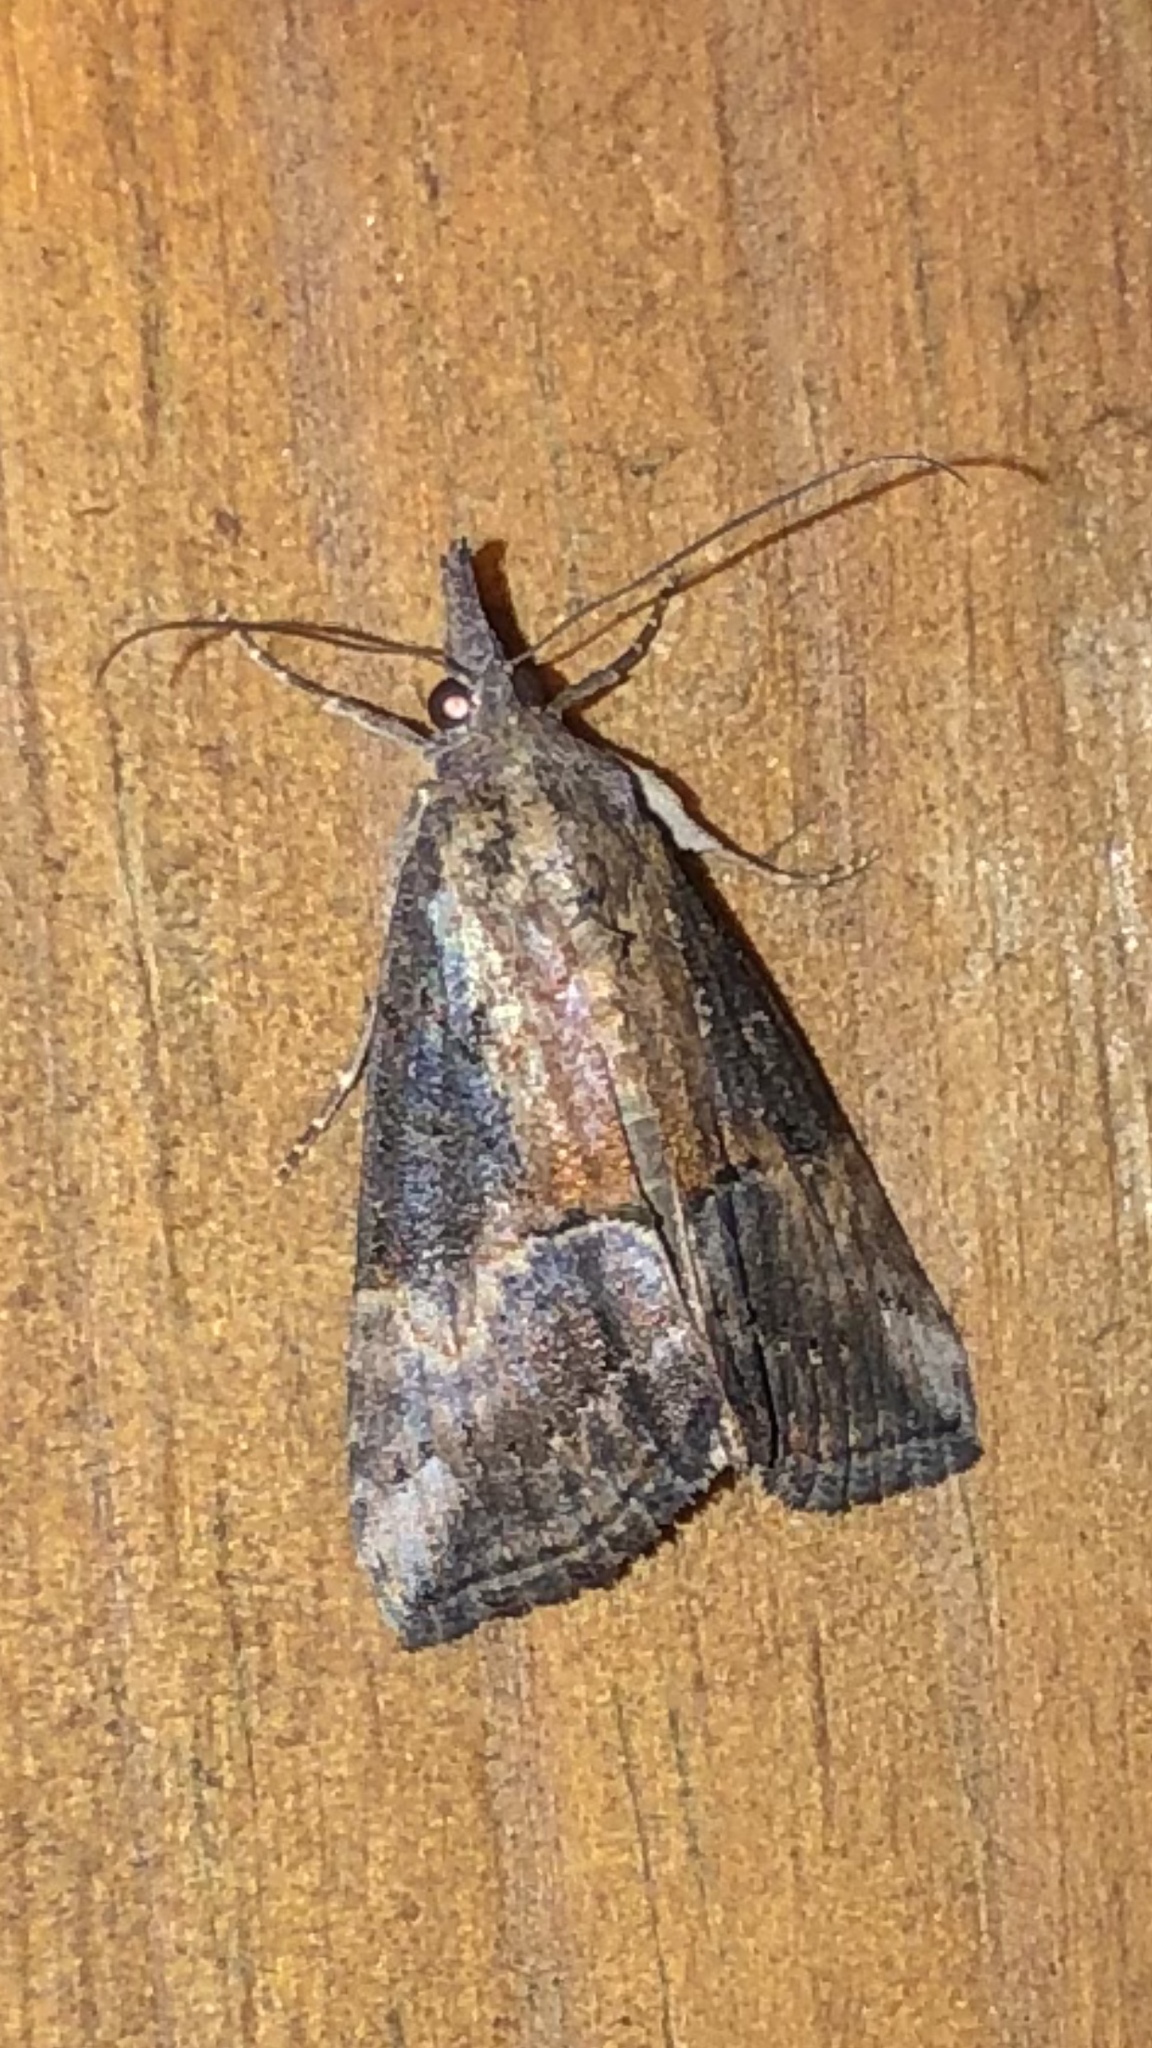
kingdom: Animalia
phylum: Arthropoda
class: Insecta
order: Lepidoptera
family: Erebidae
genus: Hypena
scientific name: Hypena scabra
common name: Green cloverworm
